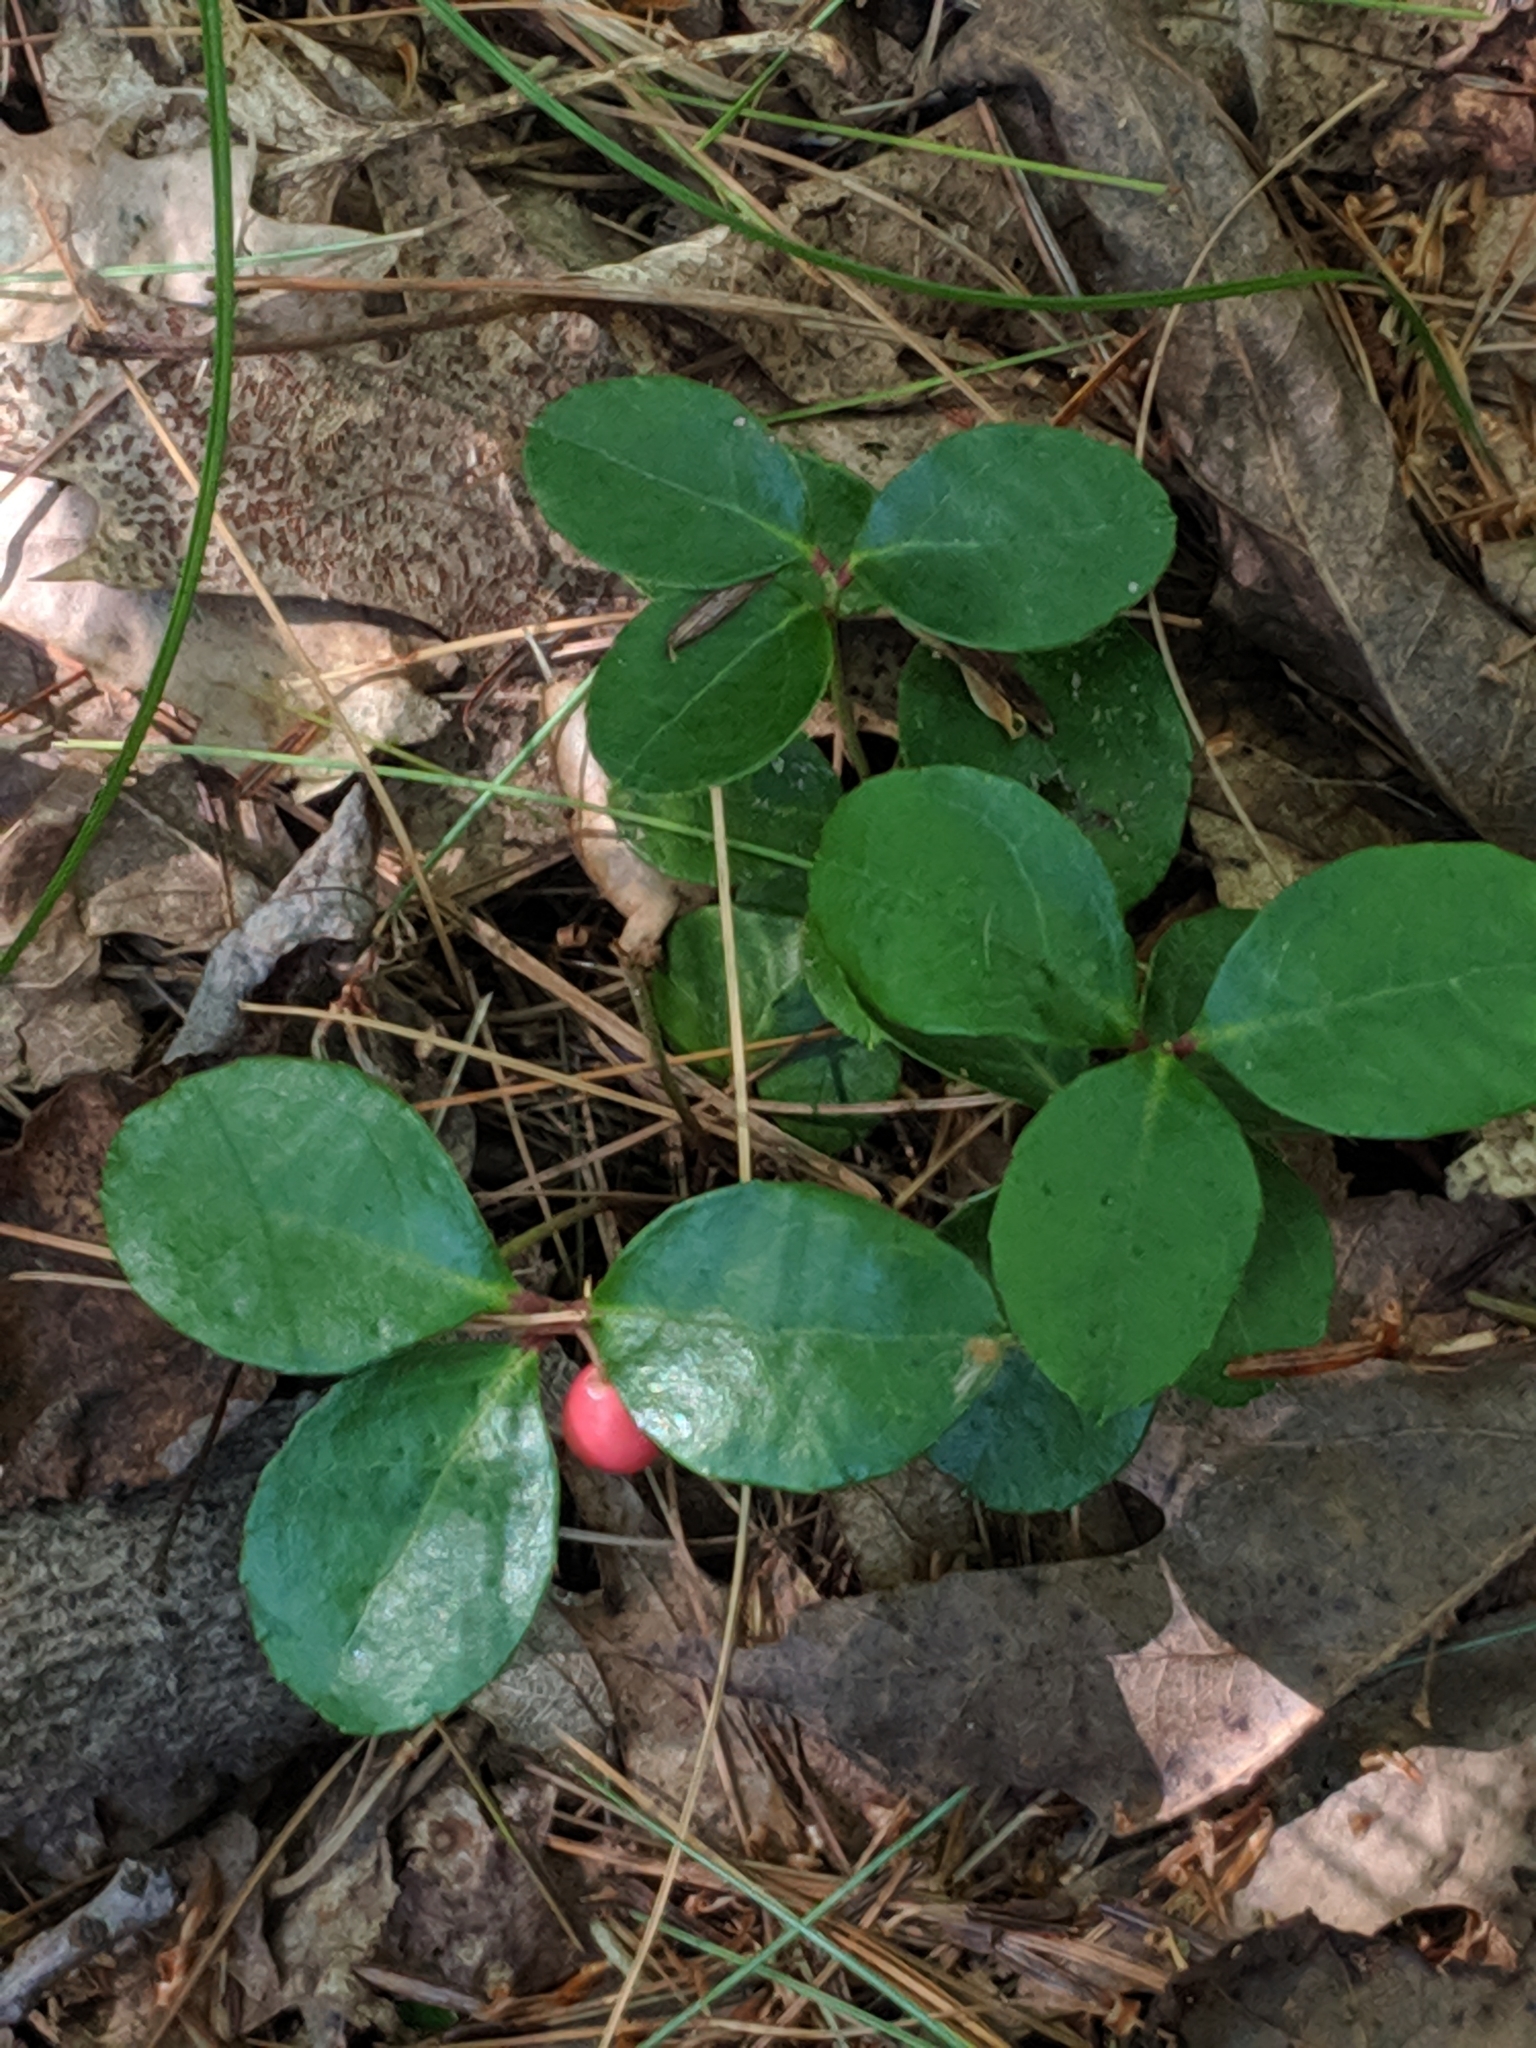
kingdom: Plantae
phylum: Tracheophyta
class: Magnoliopsida
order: Ericales
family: Ericaceae
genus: Gaultheria
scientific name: Gaultheria procumbens
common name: Checkerberry
